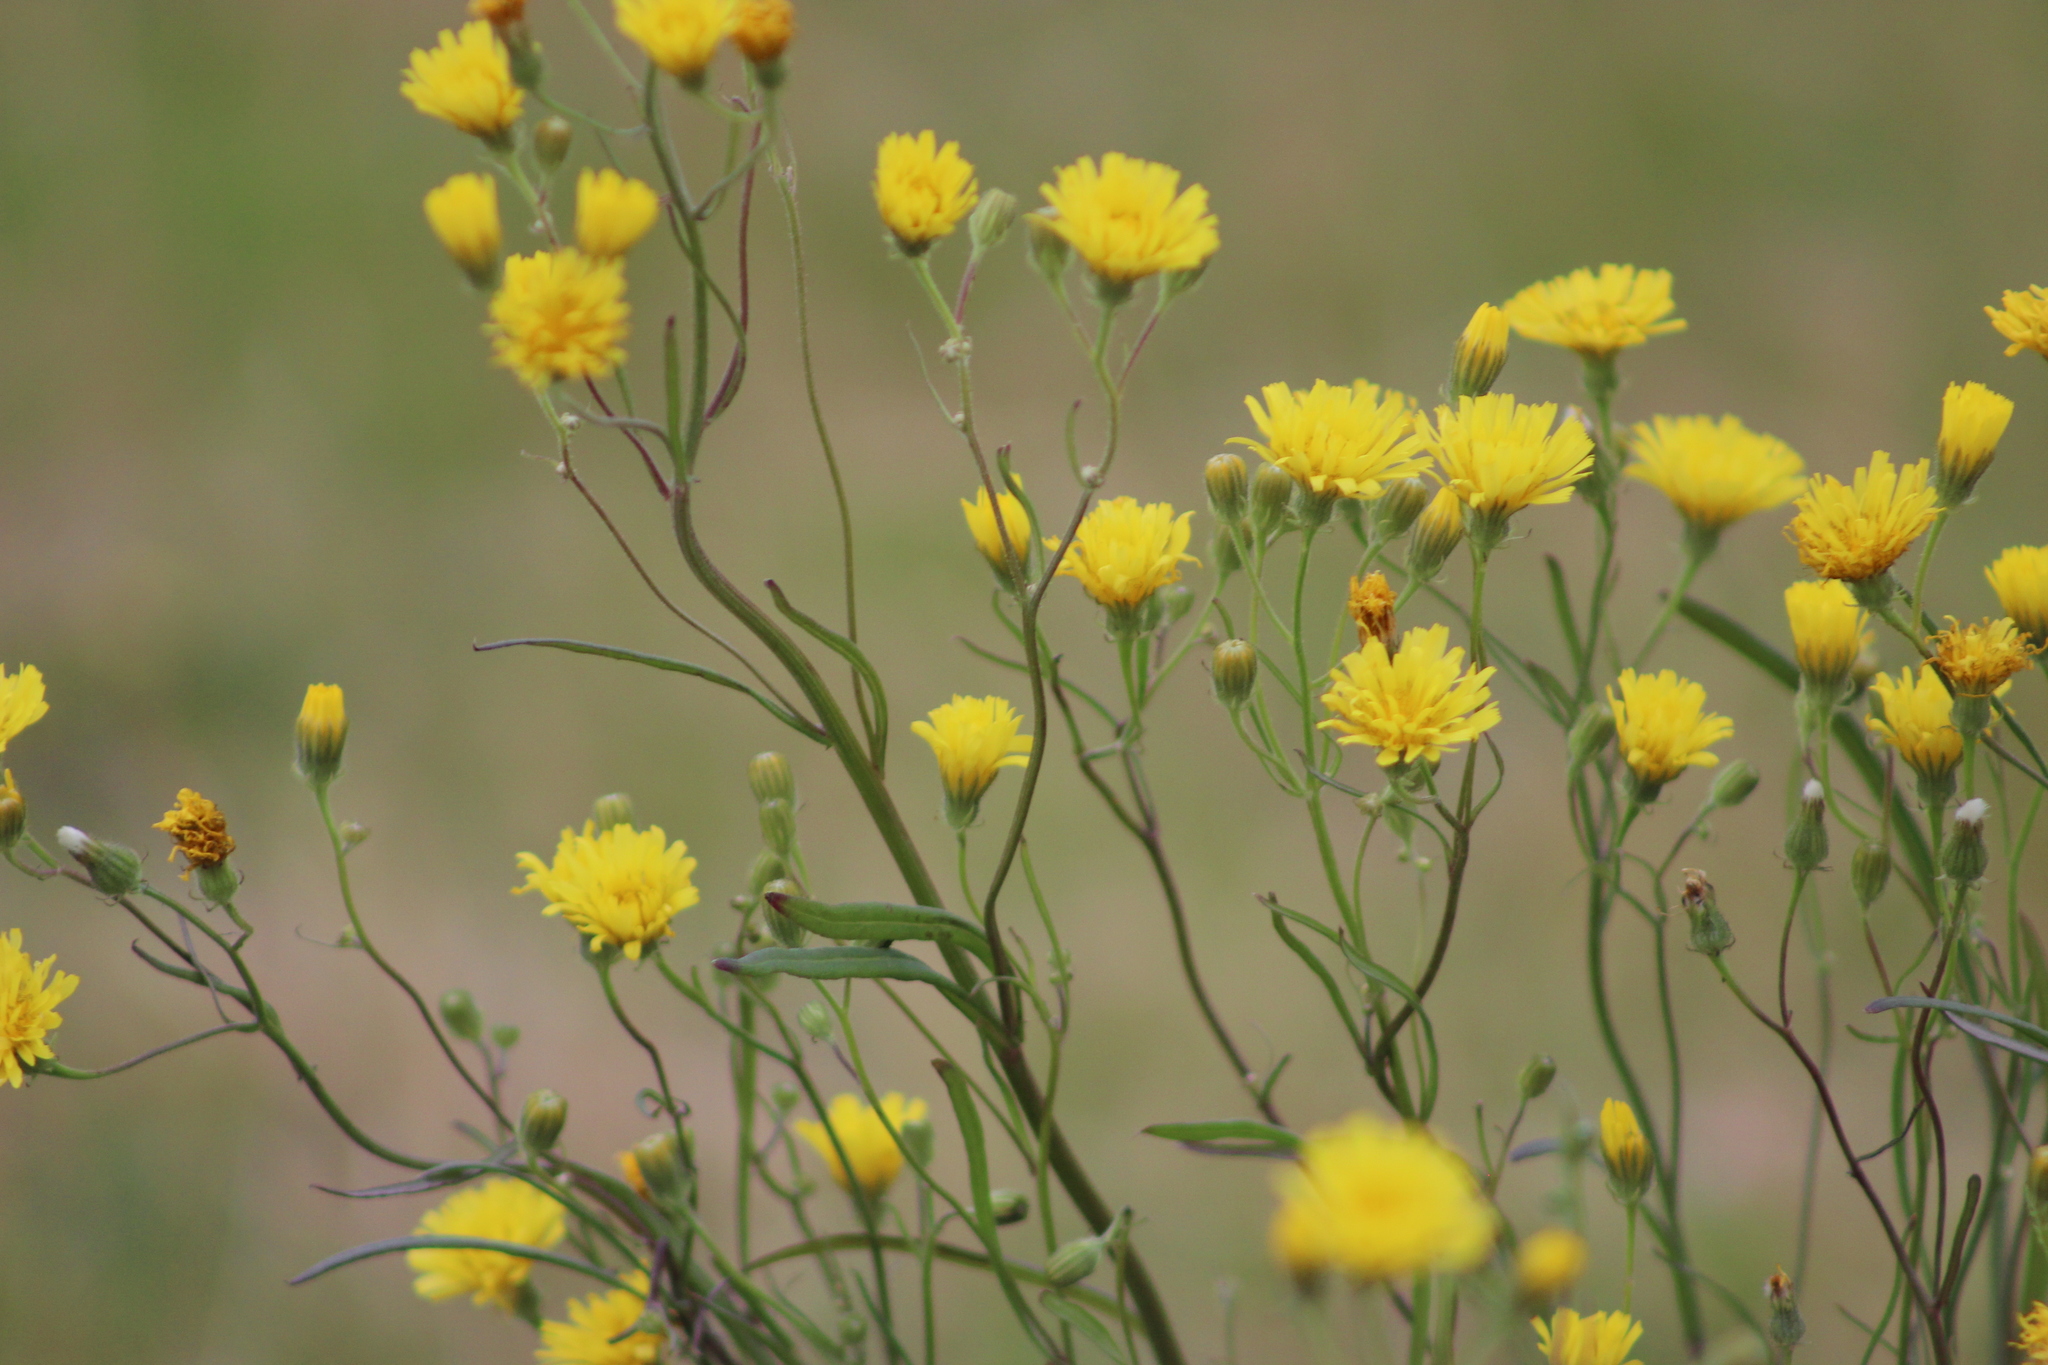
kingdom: Plantae
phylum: Tracheophyta
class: Magnoliopsida
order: Asterales
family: Asteraceae
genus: Crepis
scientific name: Crepis tectorum
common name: Narrow-leaved hawk's-beard
